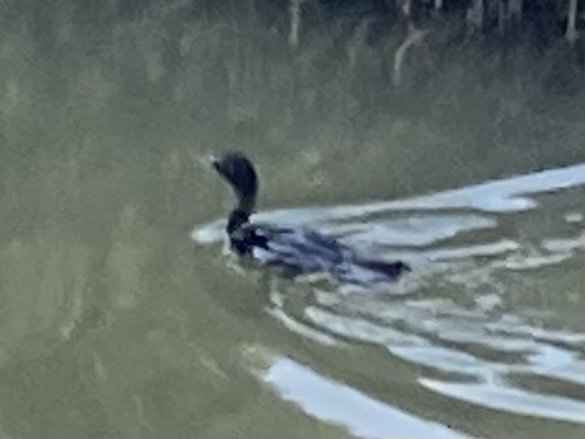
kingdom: Animalia
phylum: Chordata
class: Aves
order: Suliformes
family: Phalacrocoracidae
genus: Microcarbo
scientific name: Microcarbo melanoleucos
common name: Little pied cormorant
